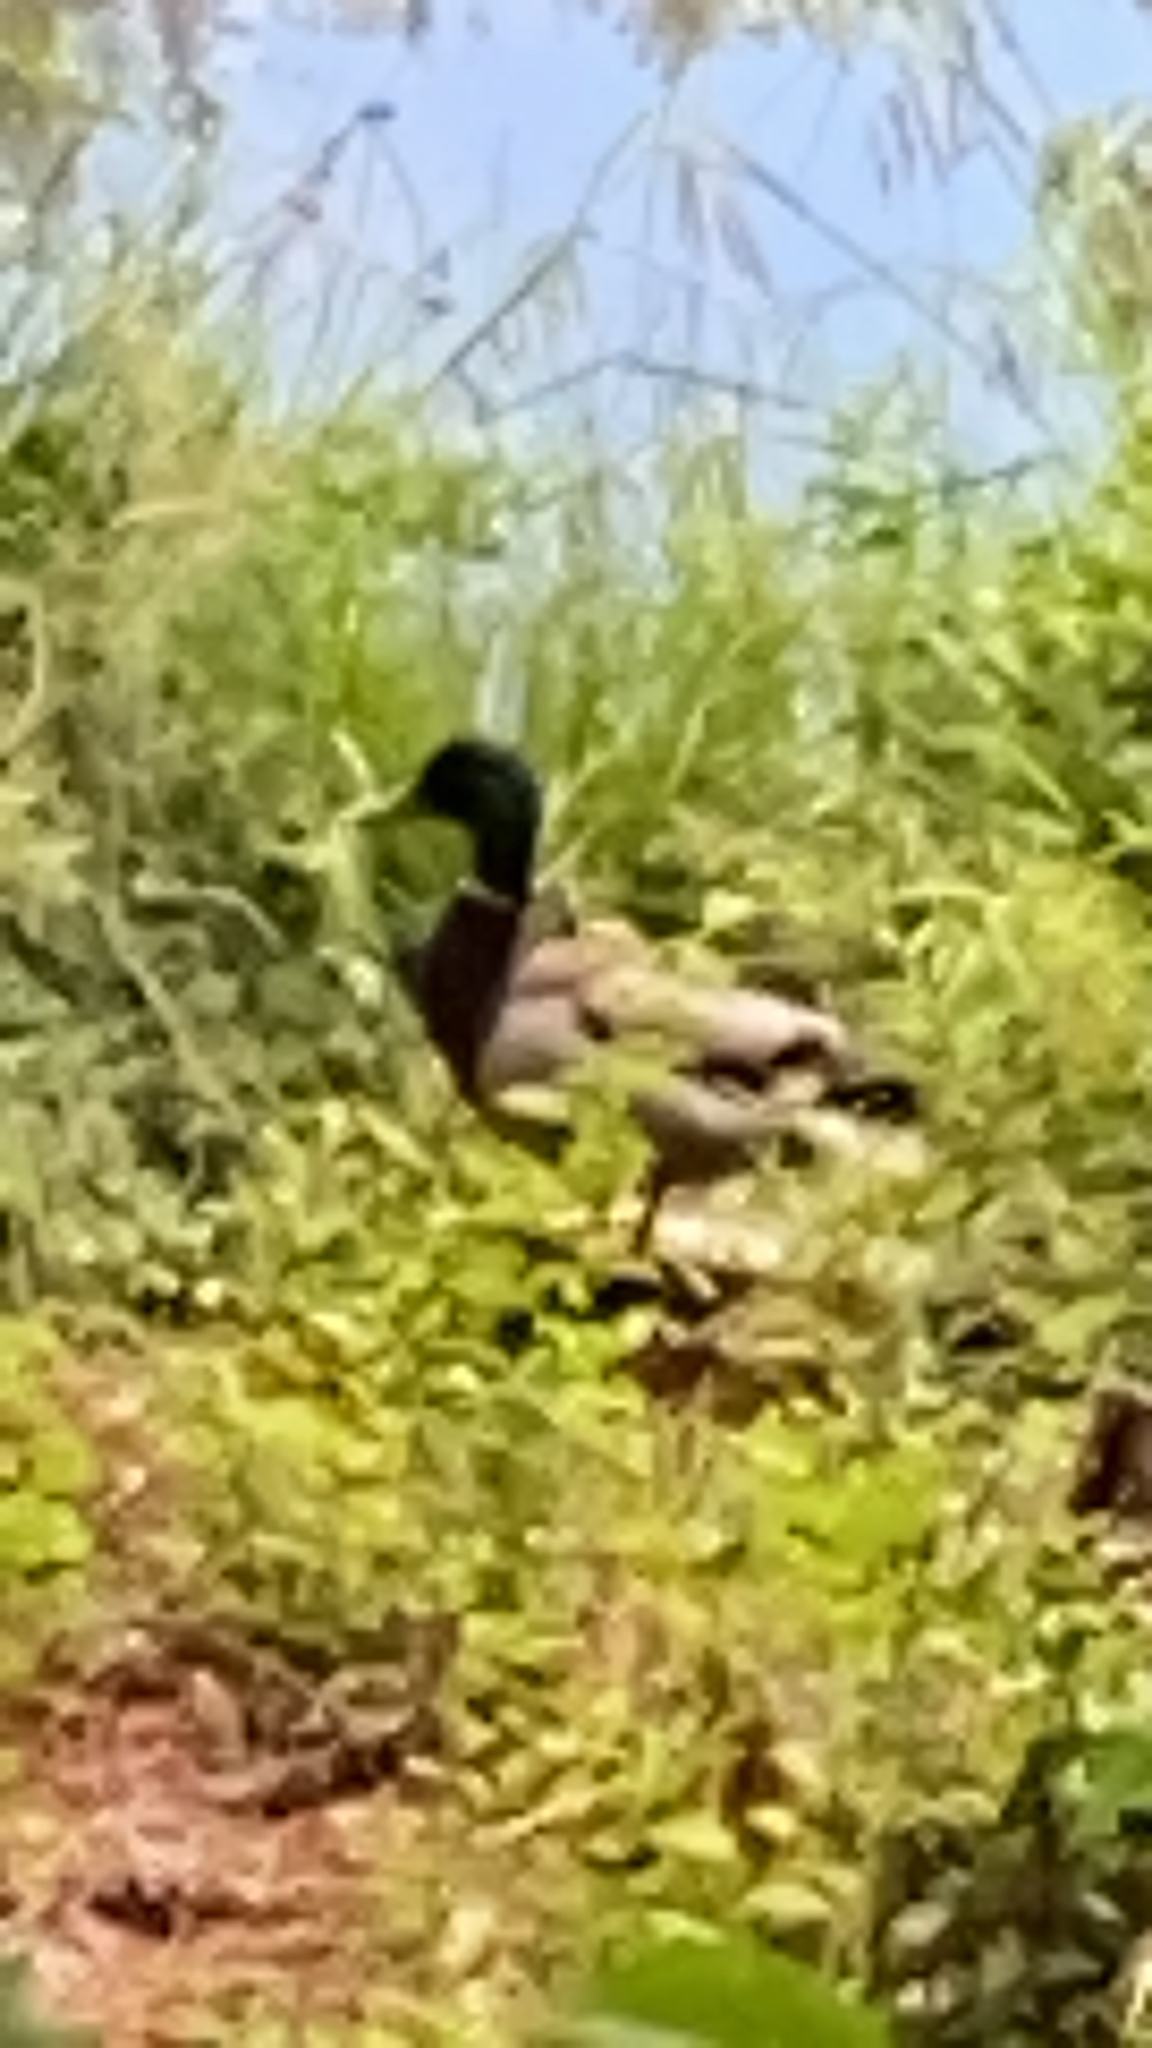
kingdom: Animalia
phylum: Chordata
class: Aves
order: Anseriformes
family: Anatidae
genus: Anas
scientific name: Anas platyrhynchos
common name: Mallard
